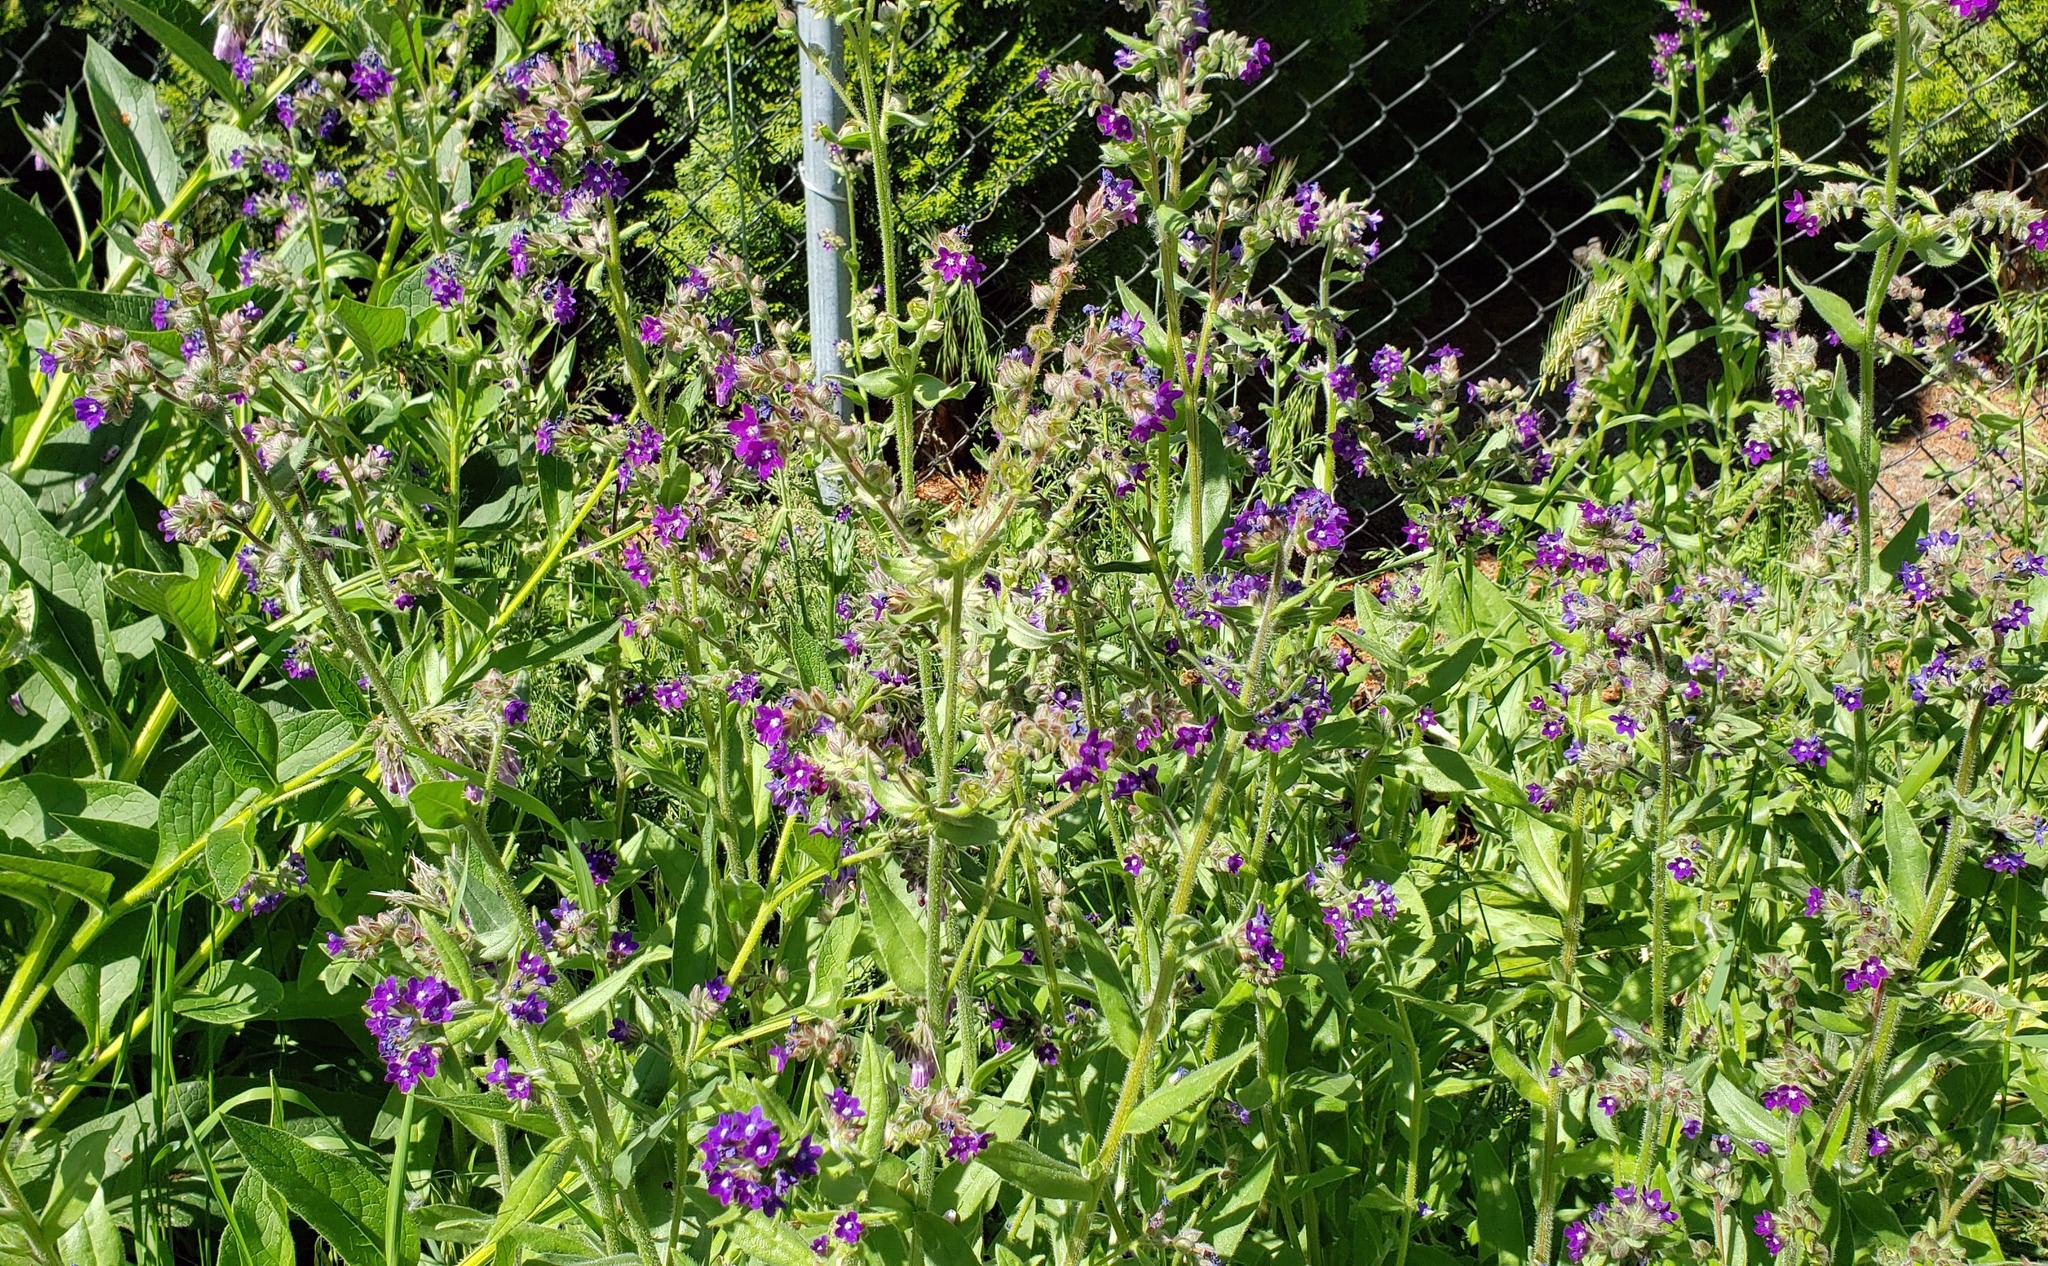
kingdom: Plantae
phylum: Tracheophyta
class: Magnoliopsida
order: Boraginales
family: Boraginaceae
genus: Anchusa
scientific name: Anchusa officinalis
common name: Alkanet
